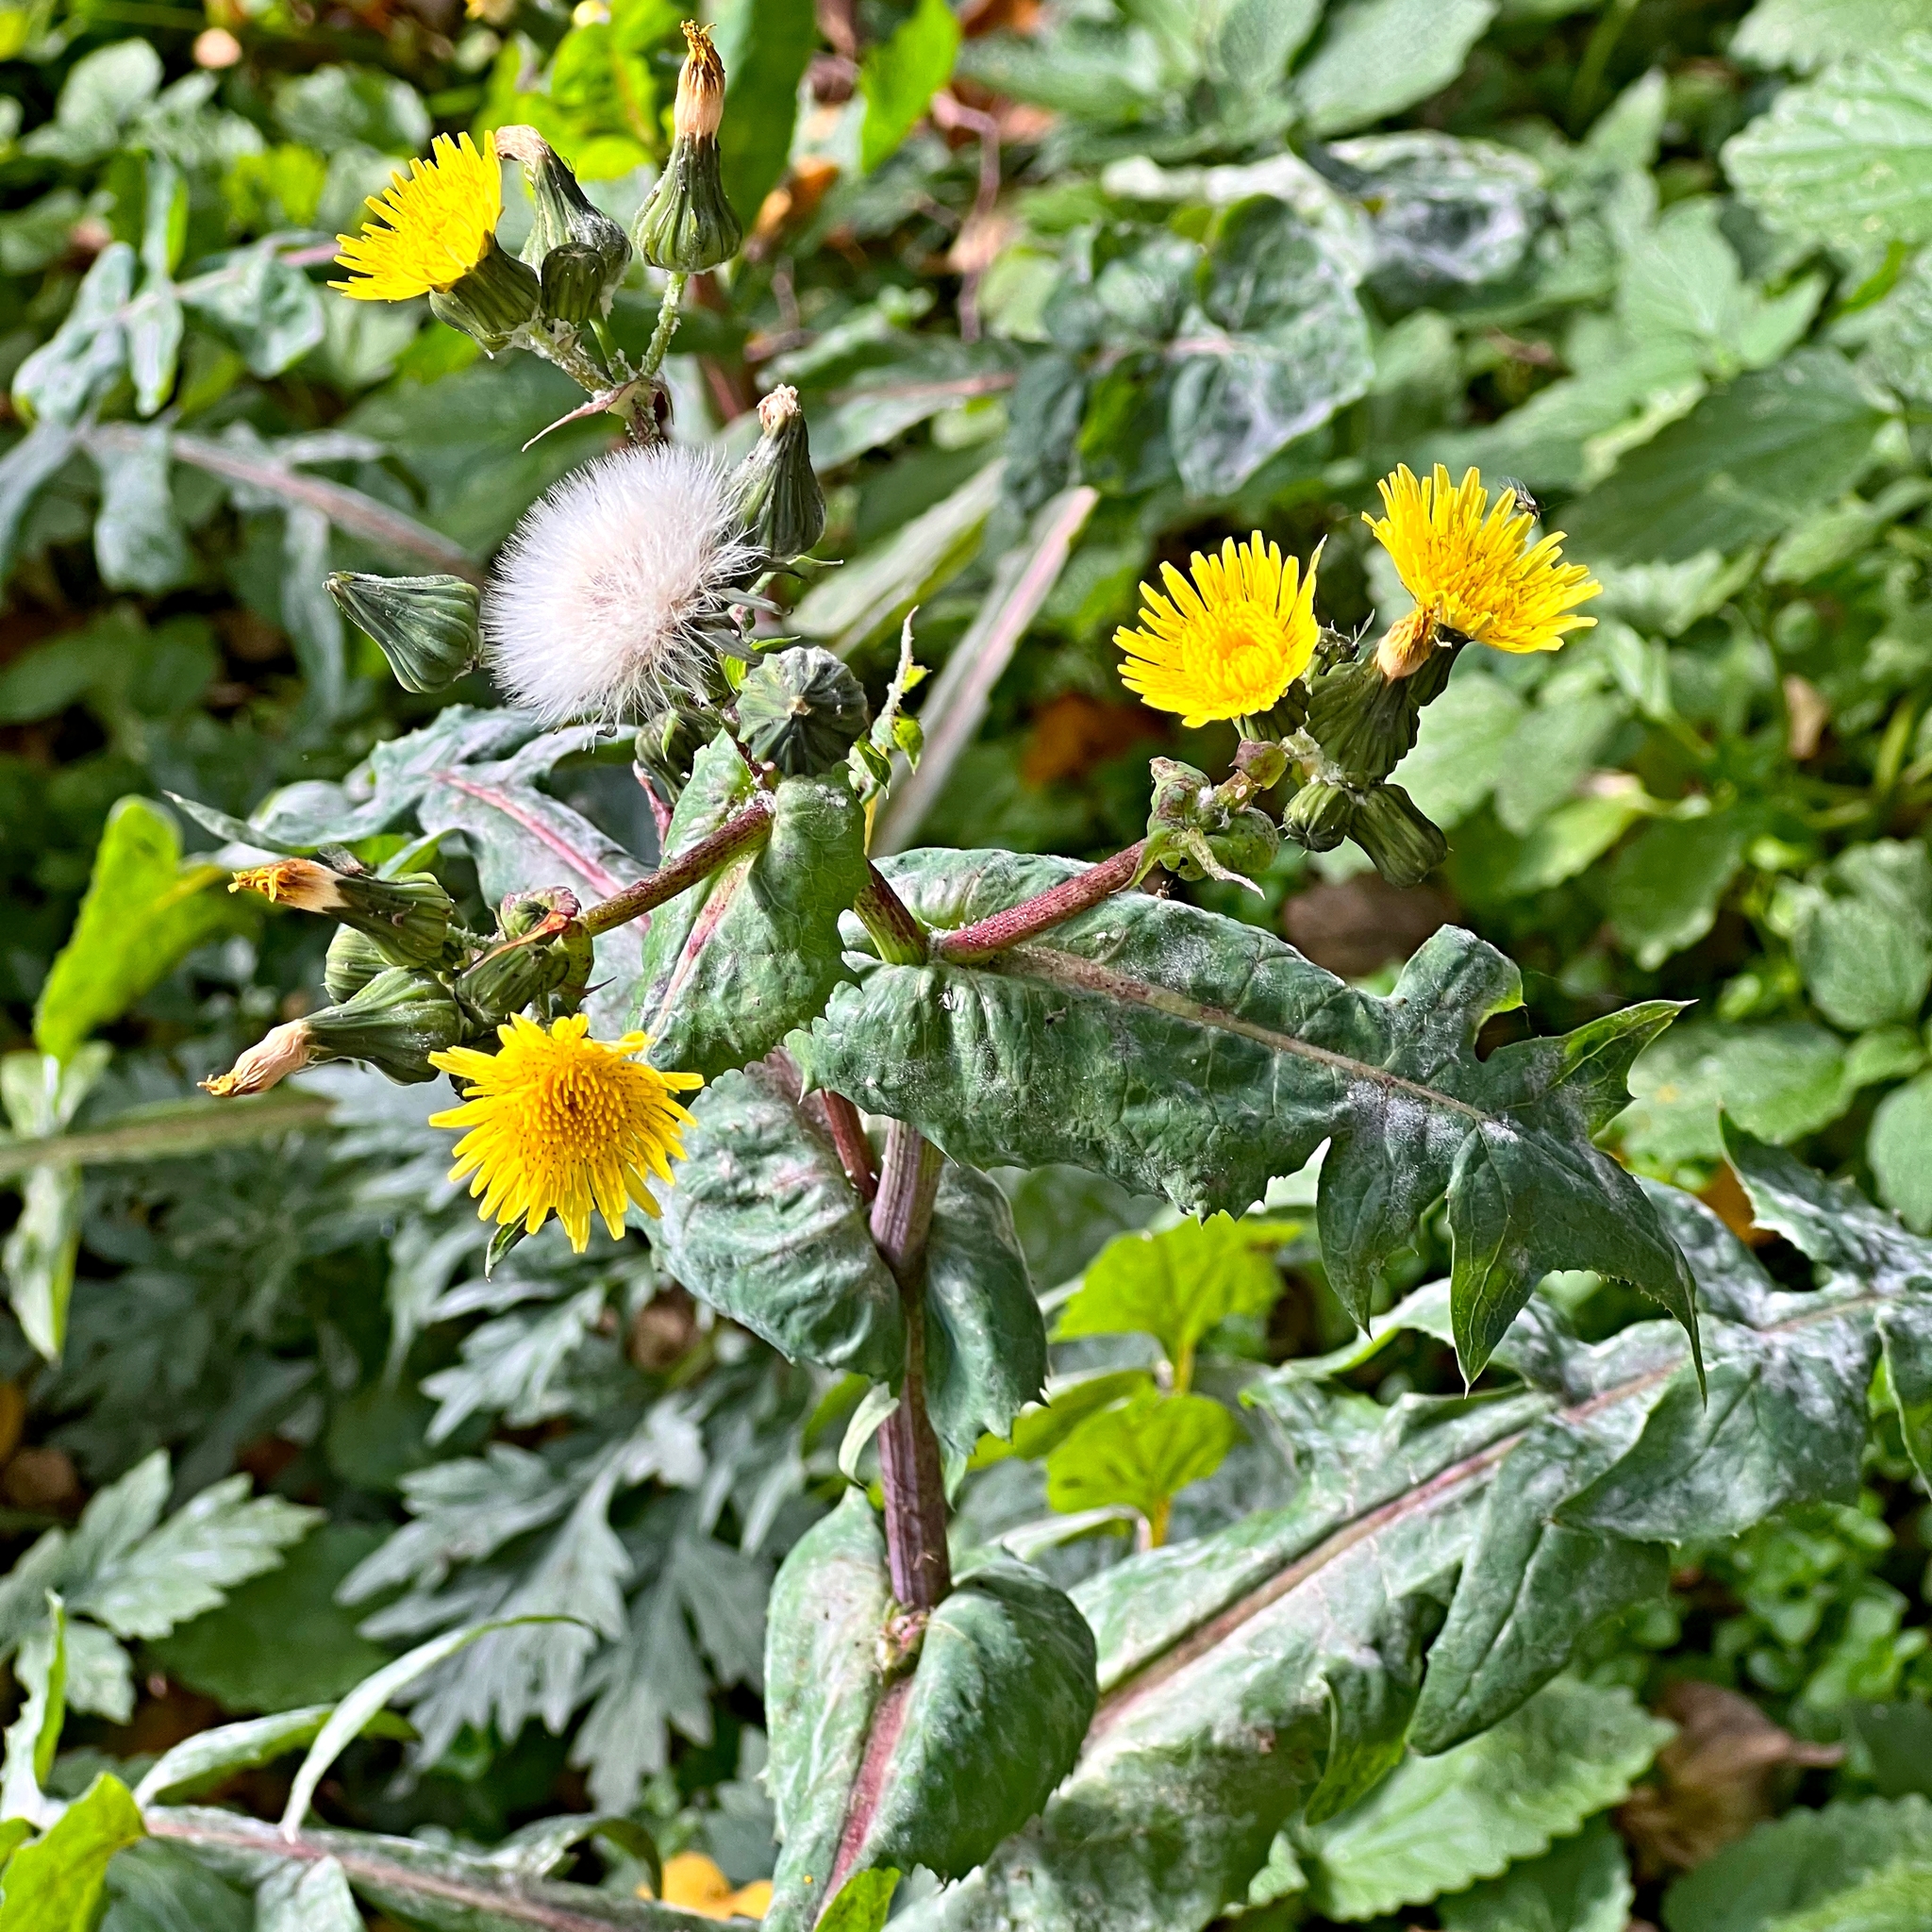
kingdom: Plantae
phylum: Tracheophyta
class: Magnoliopsida
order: Asterales
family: Asteraceae
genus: Sonchus
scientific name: Sonchus oleraceus
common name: Common sowthistle
